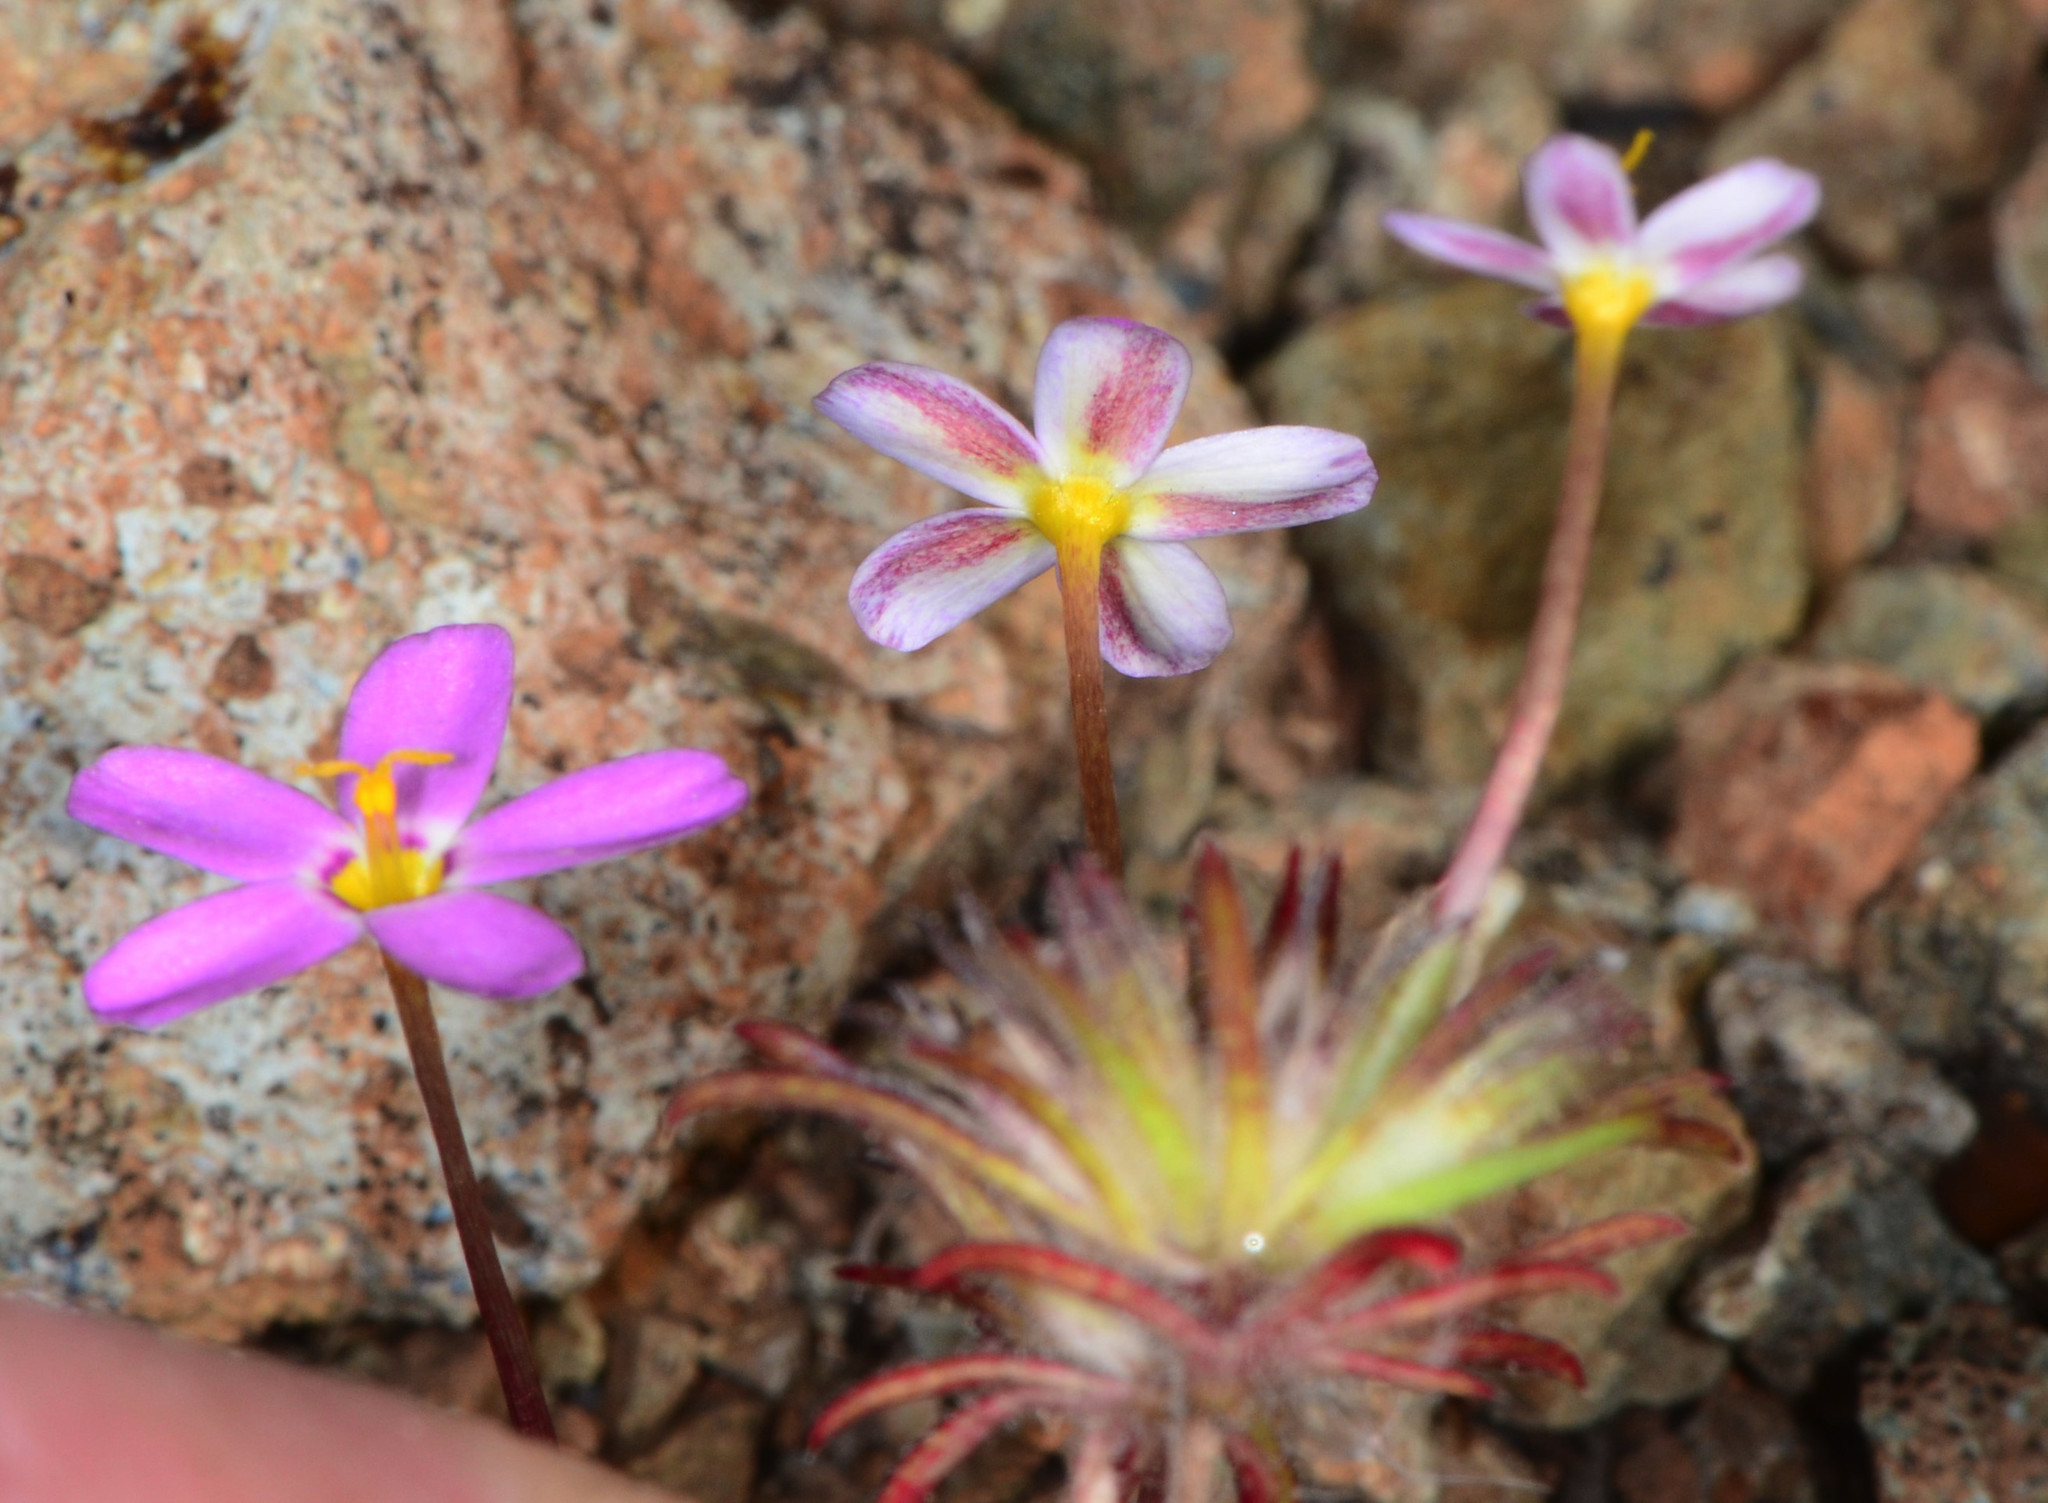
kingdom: Plantae
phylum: Tracheophyta
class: Magnoliopsida
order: Ericales
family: Polemoniaceae
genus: Leptosiphon
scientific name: Leptosiphon bicolor
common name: True babystars
